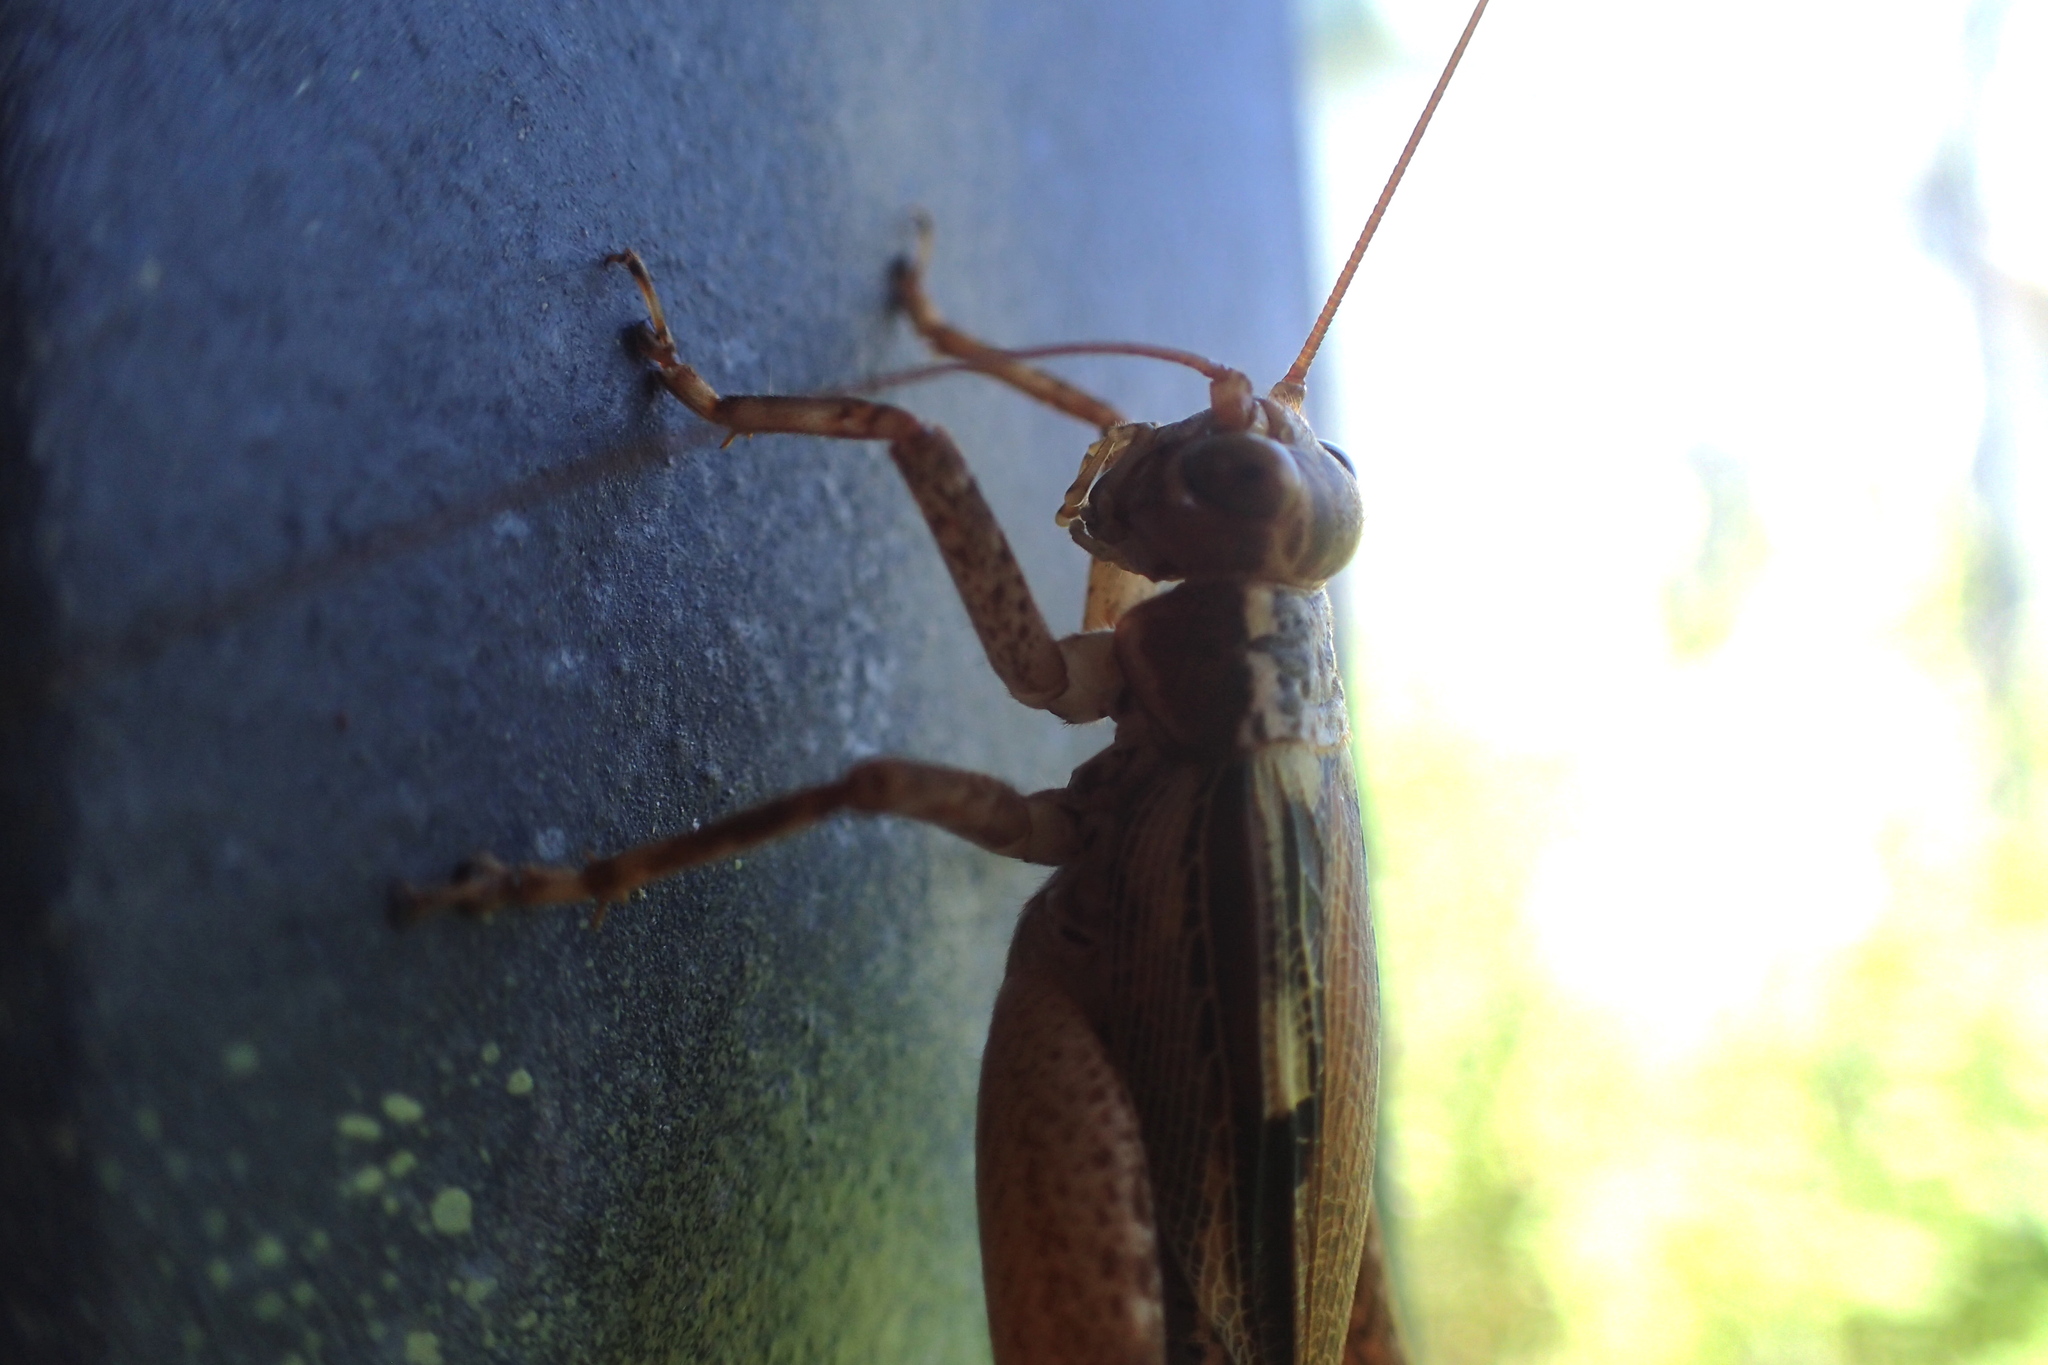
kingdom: Animalia
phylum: Arthropoda
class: Insecta
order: Orthoptera
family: Gryllidae
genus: Cardiodactylus
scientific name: Cardiodactylus novaeguineae
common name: Sad cricket
